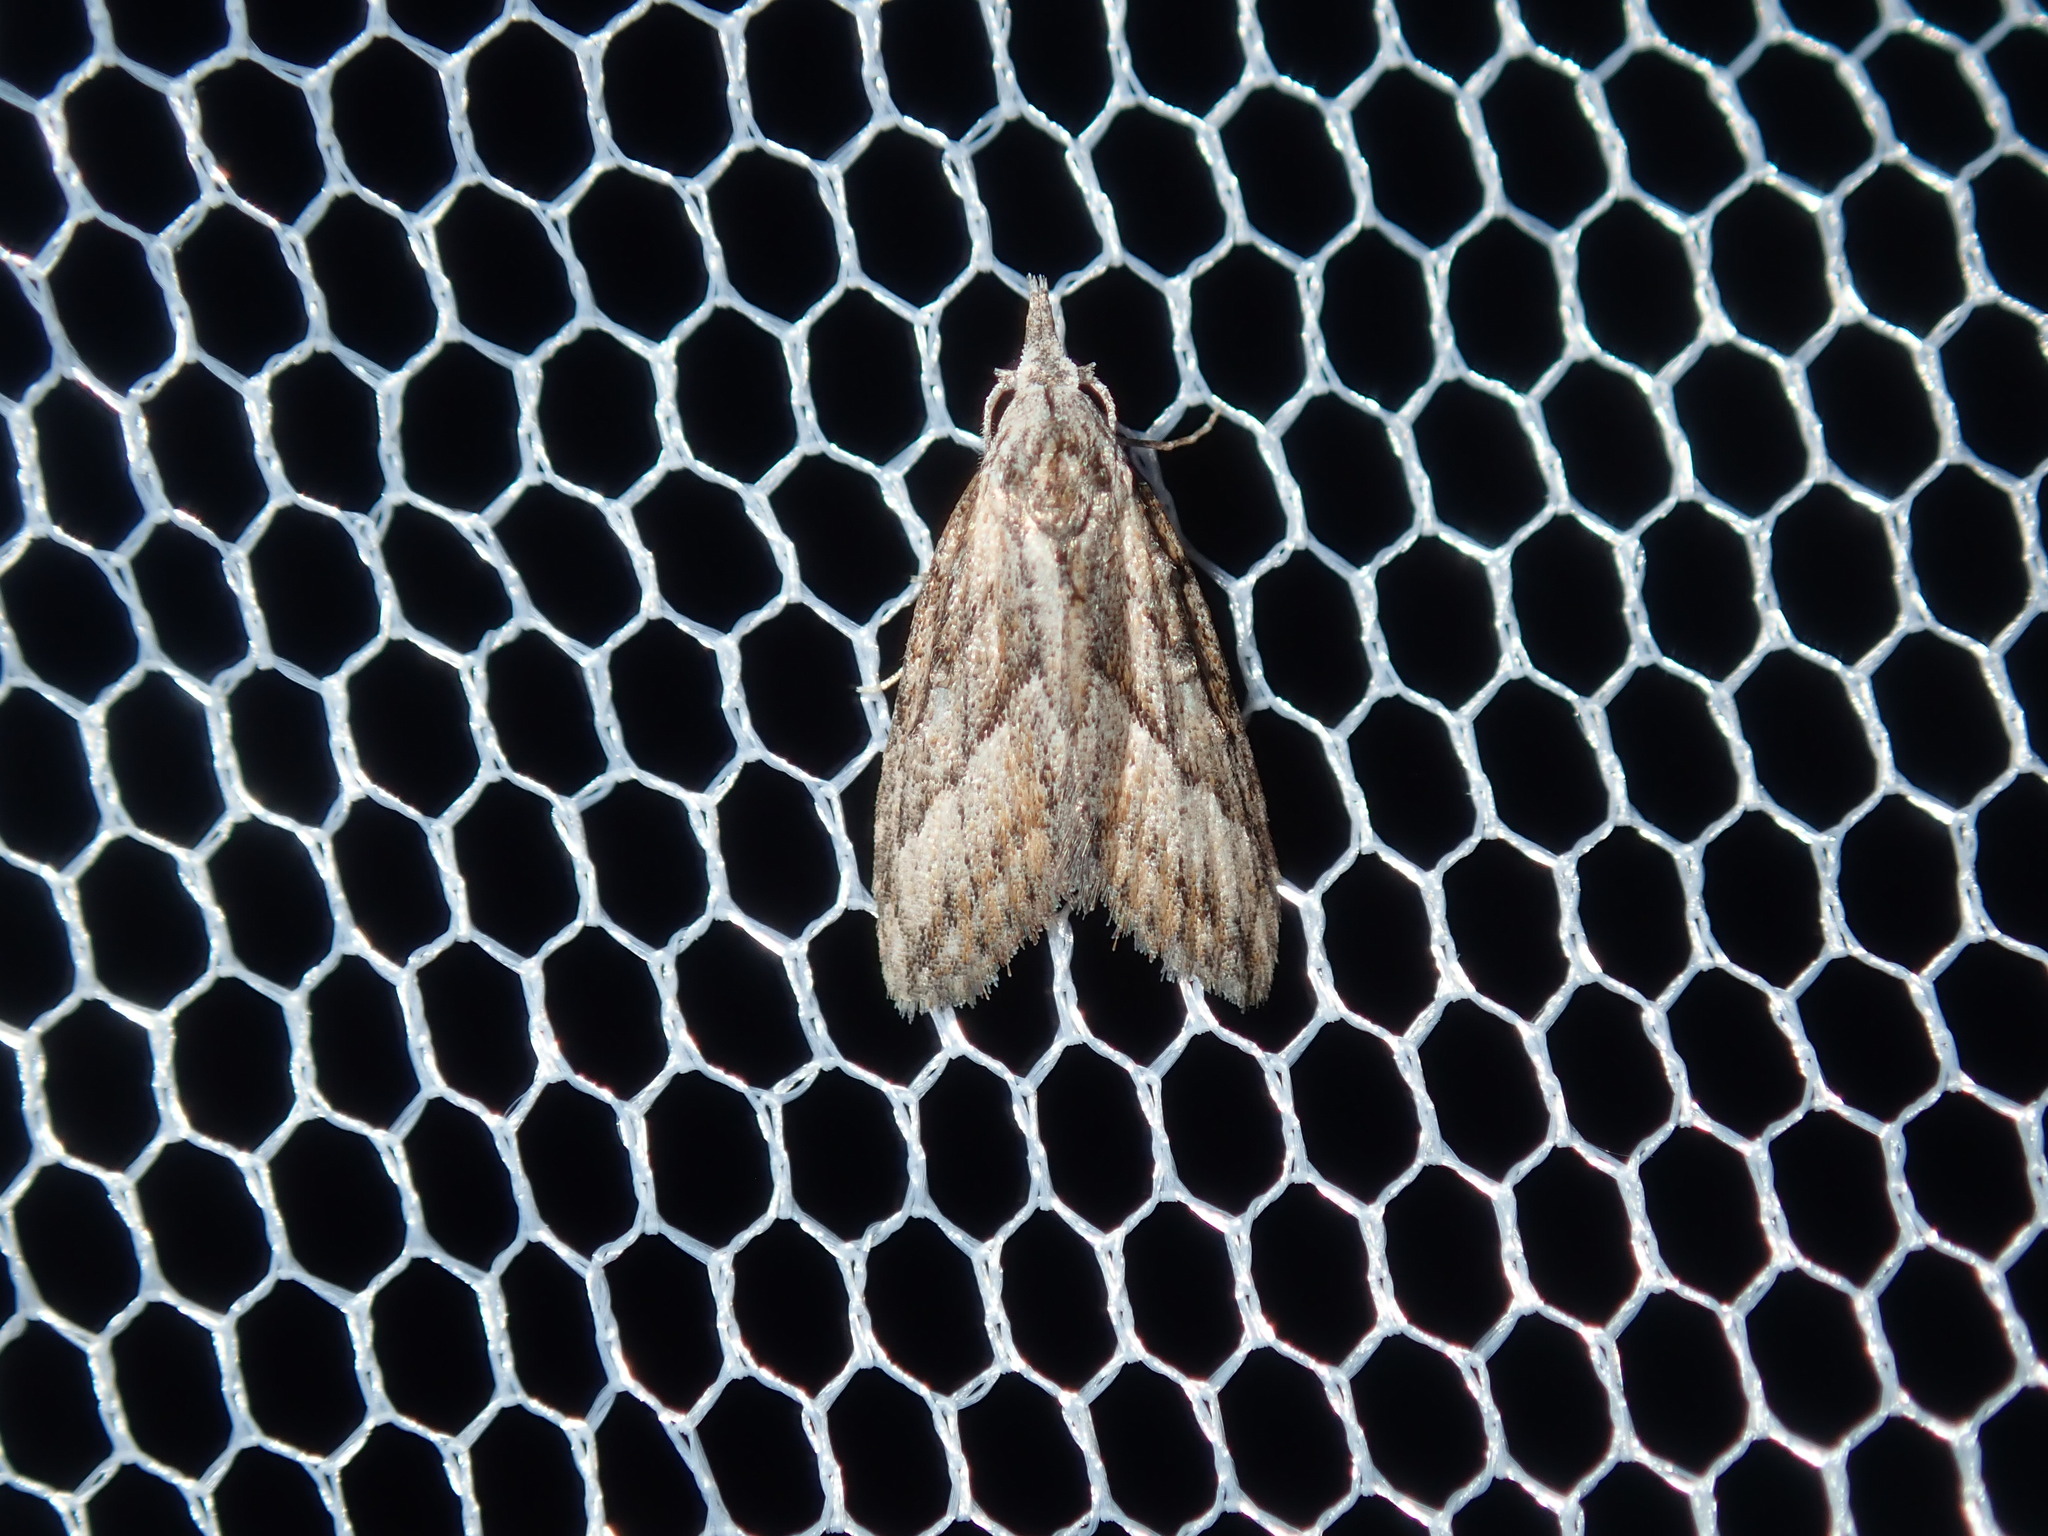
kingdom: Animalia
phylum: Arthropoda
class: Insecta
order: Lepidoptera
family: Nolidae
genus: Nola
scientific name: Nola phaeogramma
